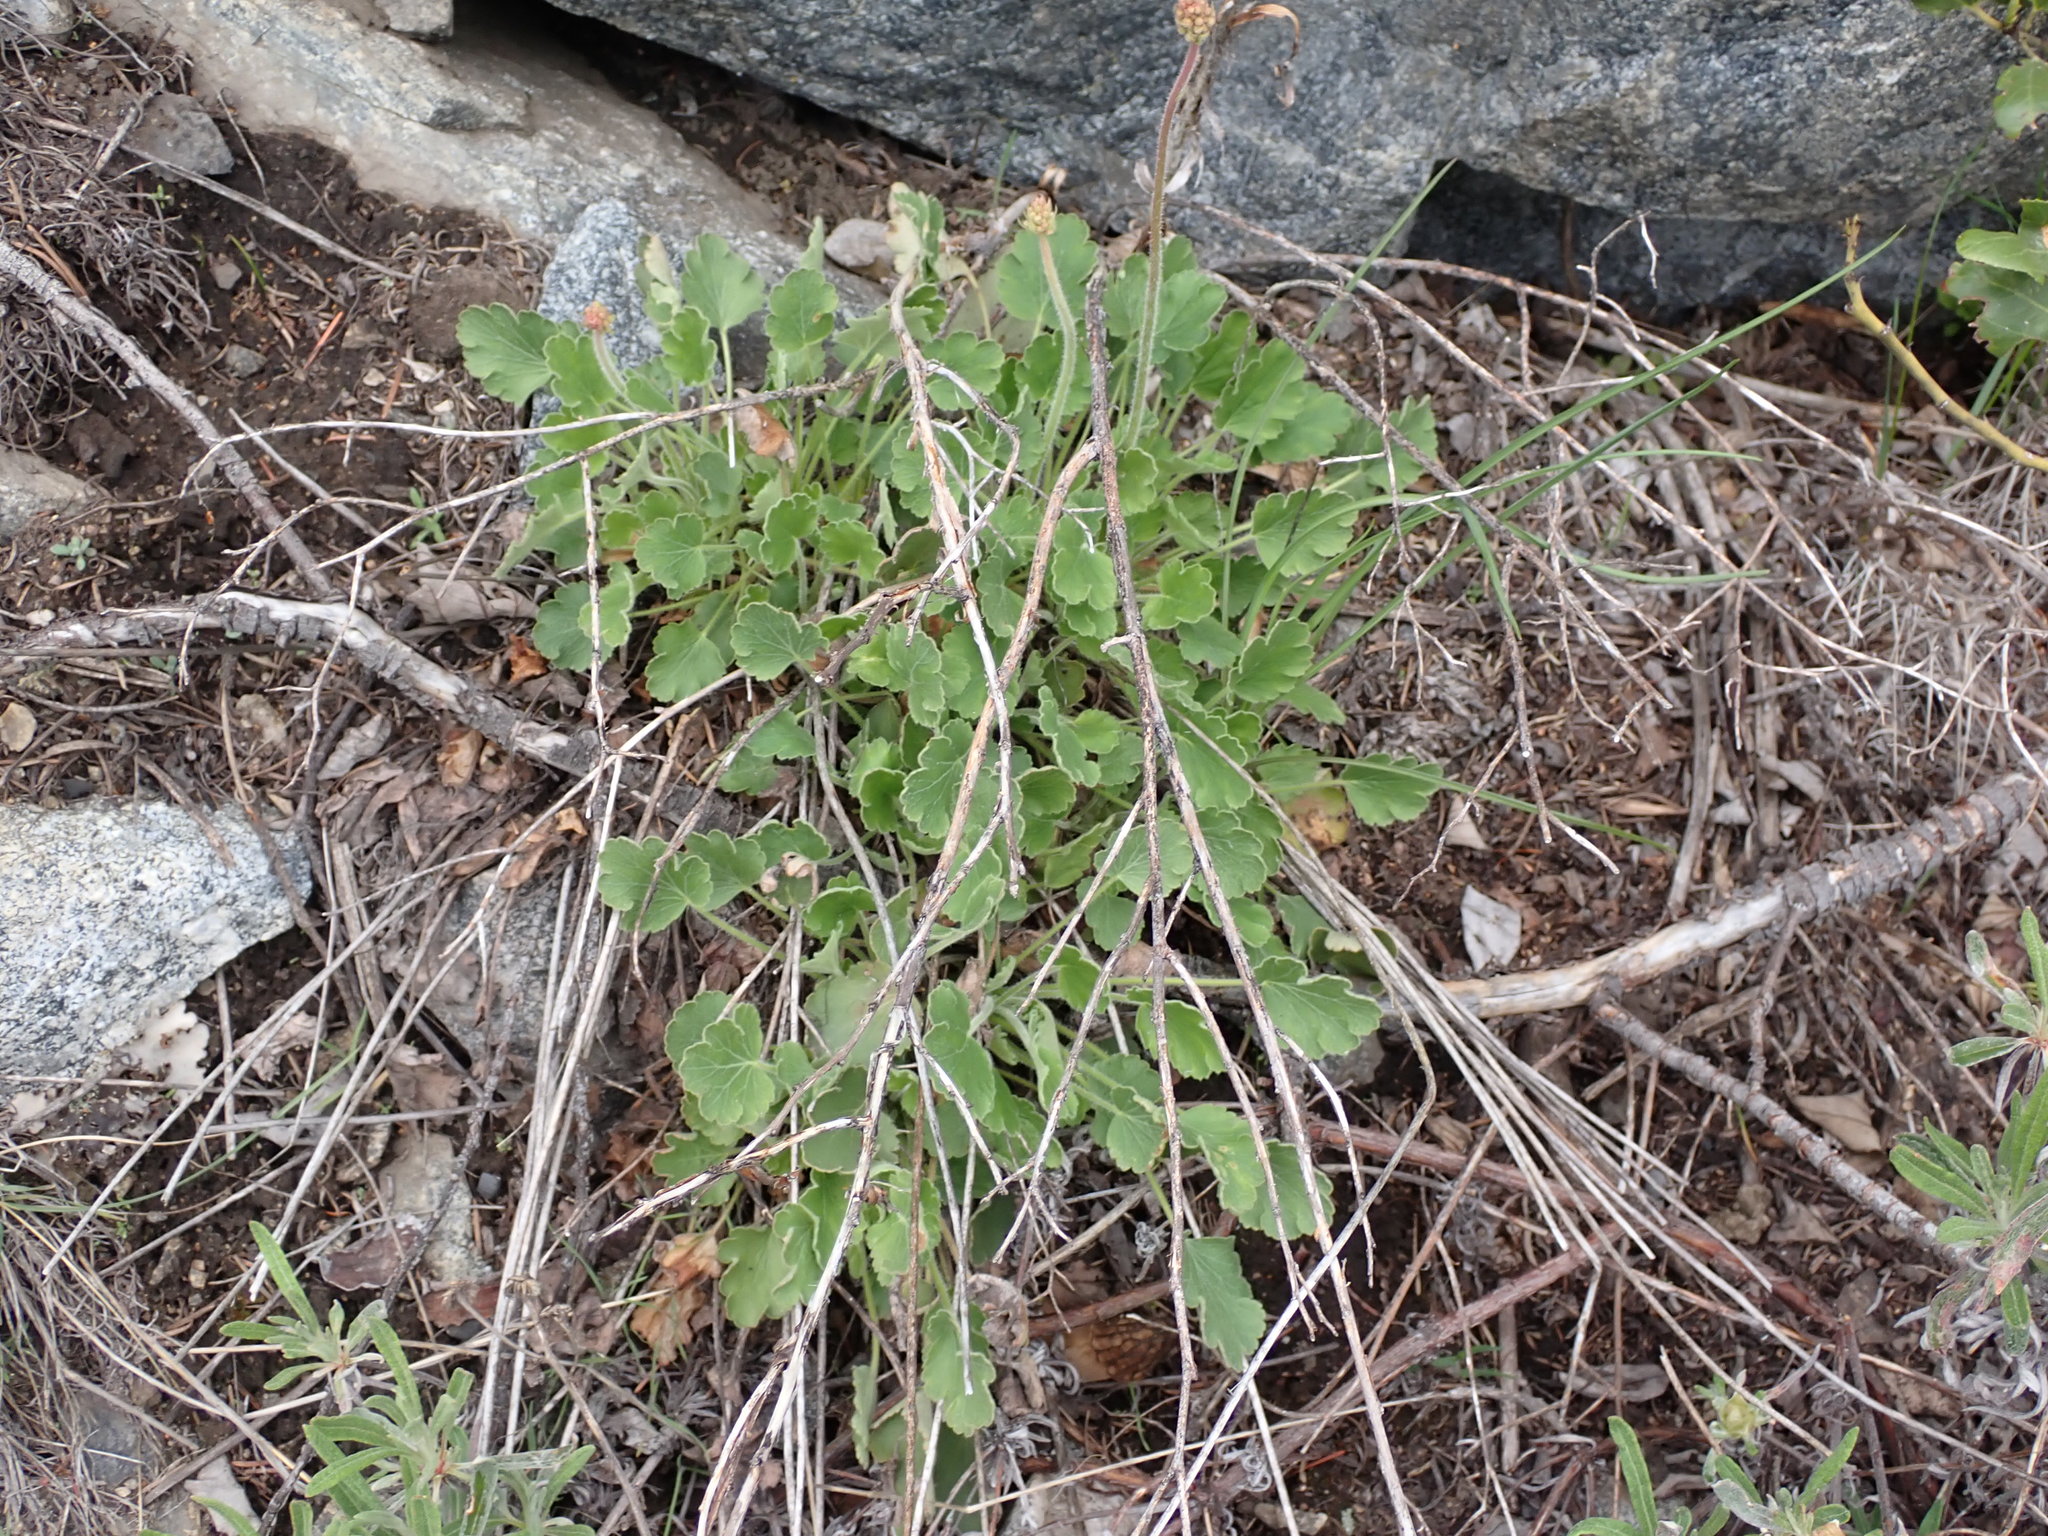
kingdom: Plantae
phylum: Tracheophyta
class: Magnoliopsida
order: Saxifragales
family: Saxifragaceae
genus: Heuchera
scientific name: Heuchera cylindrica
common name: Mat alumroot
